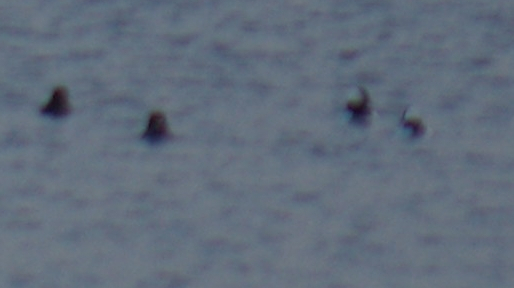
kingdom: Animalia
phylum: Chordata
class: Aves
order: Anseriformes
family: Anatidae
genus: Bucephala
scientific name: Bucephala albeola
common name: Bufflehead
